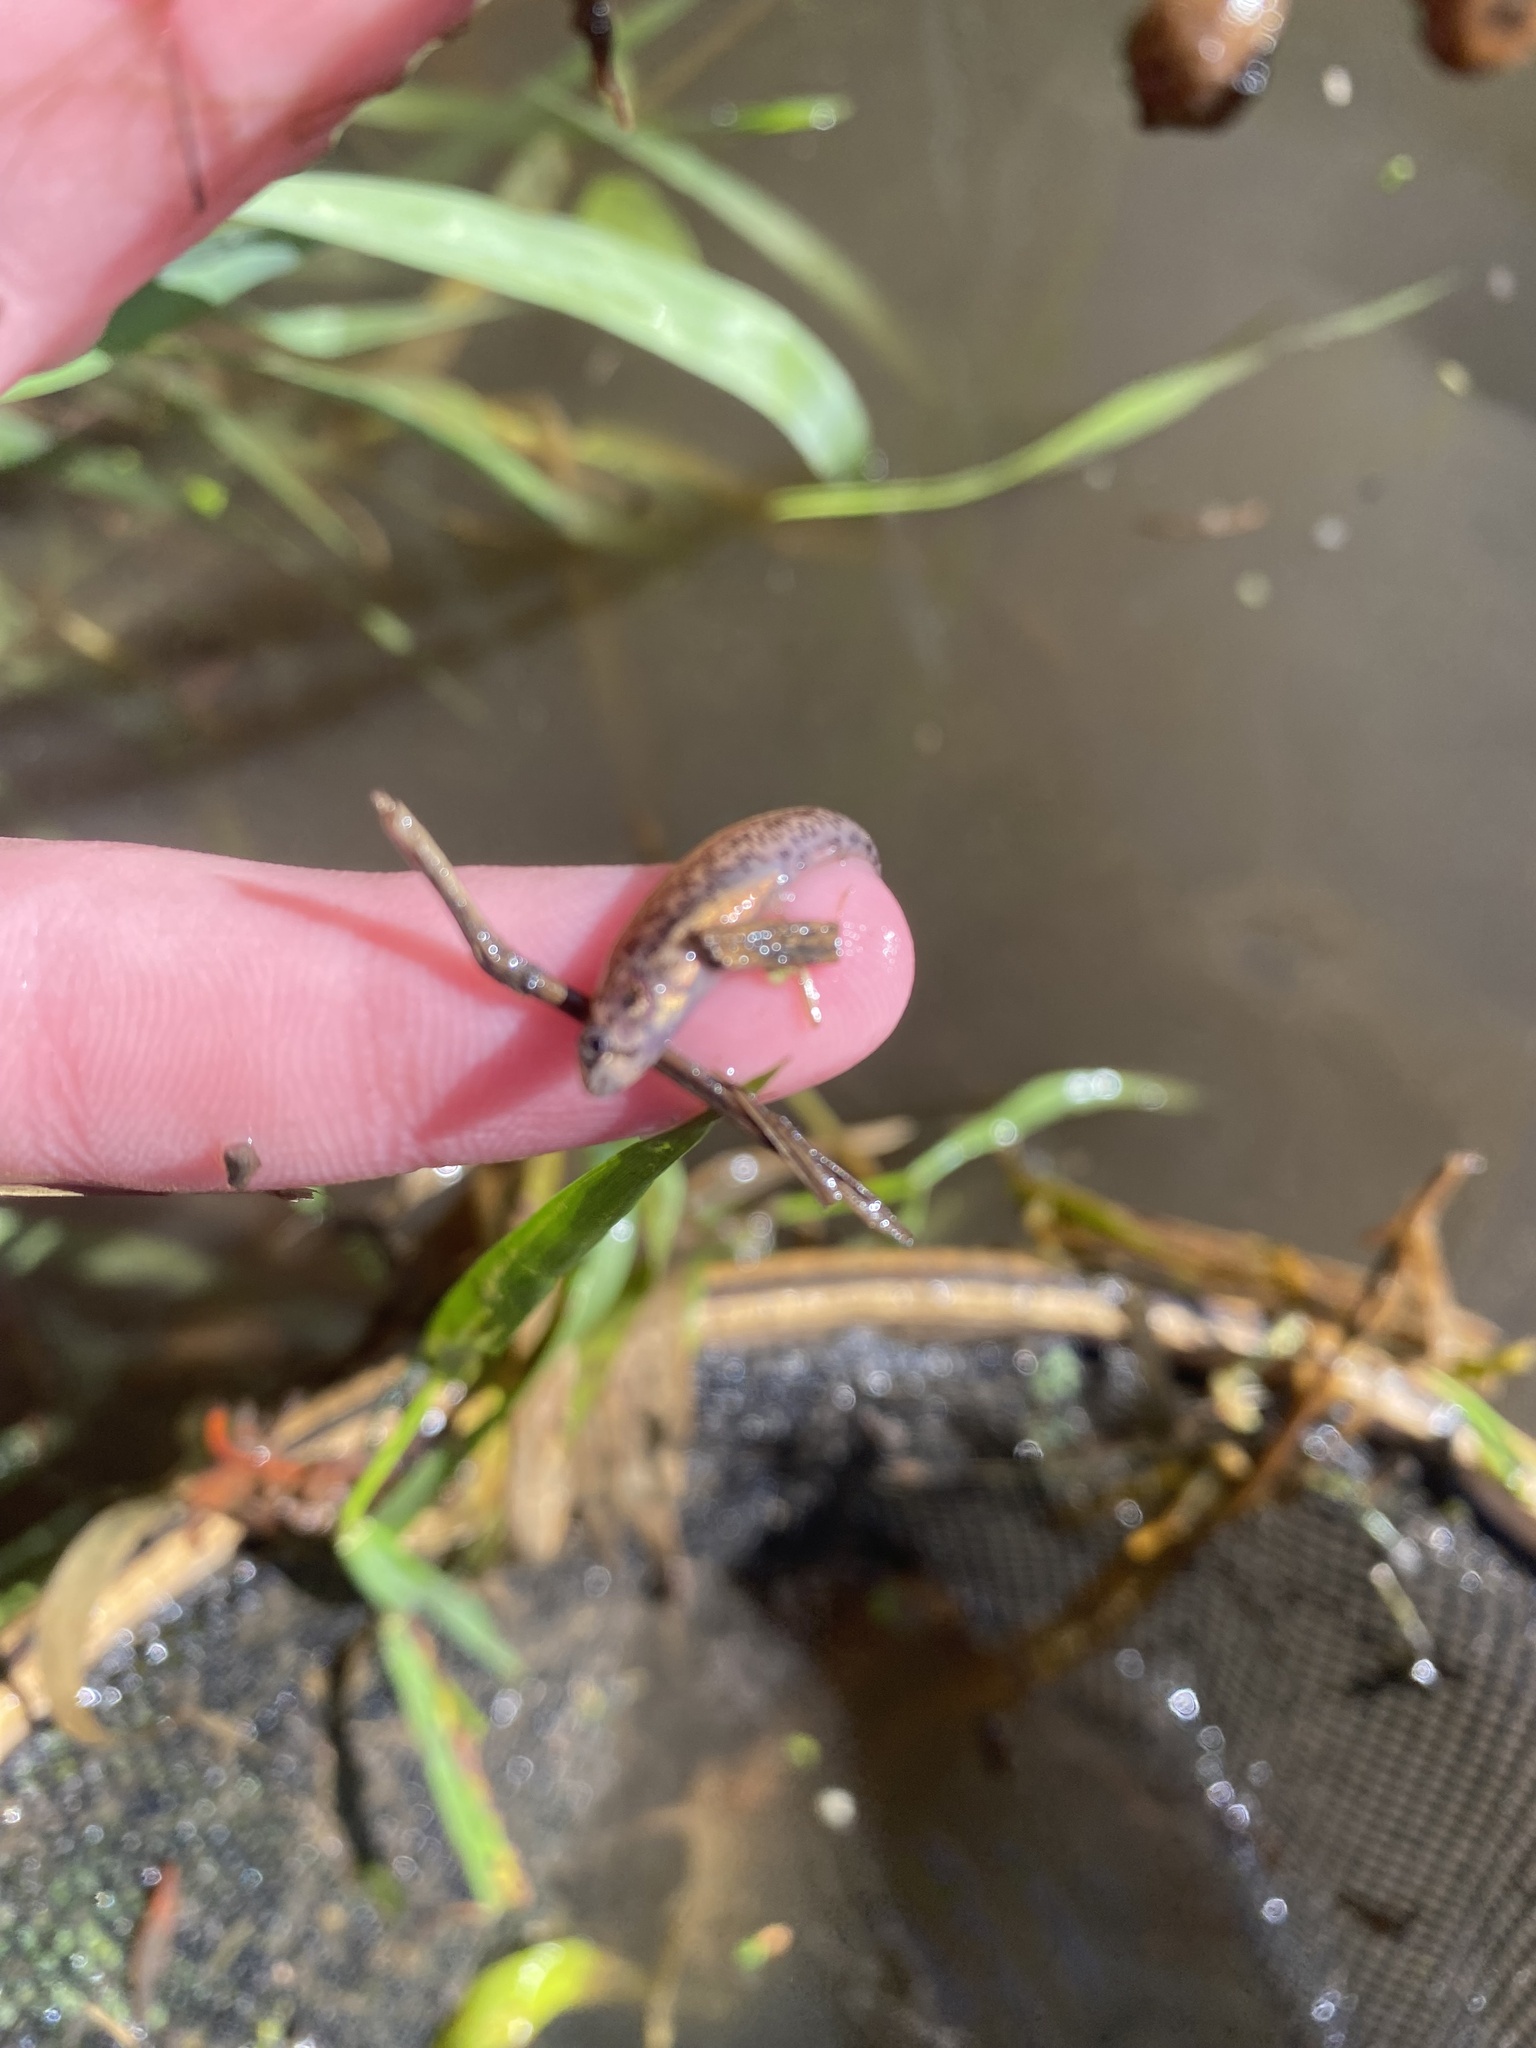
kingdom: Animalia
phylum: Chordata
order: Perciformes
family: Percidae
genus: Etheostoma
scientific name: Etheostoma microperca
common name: Least darter
